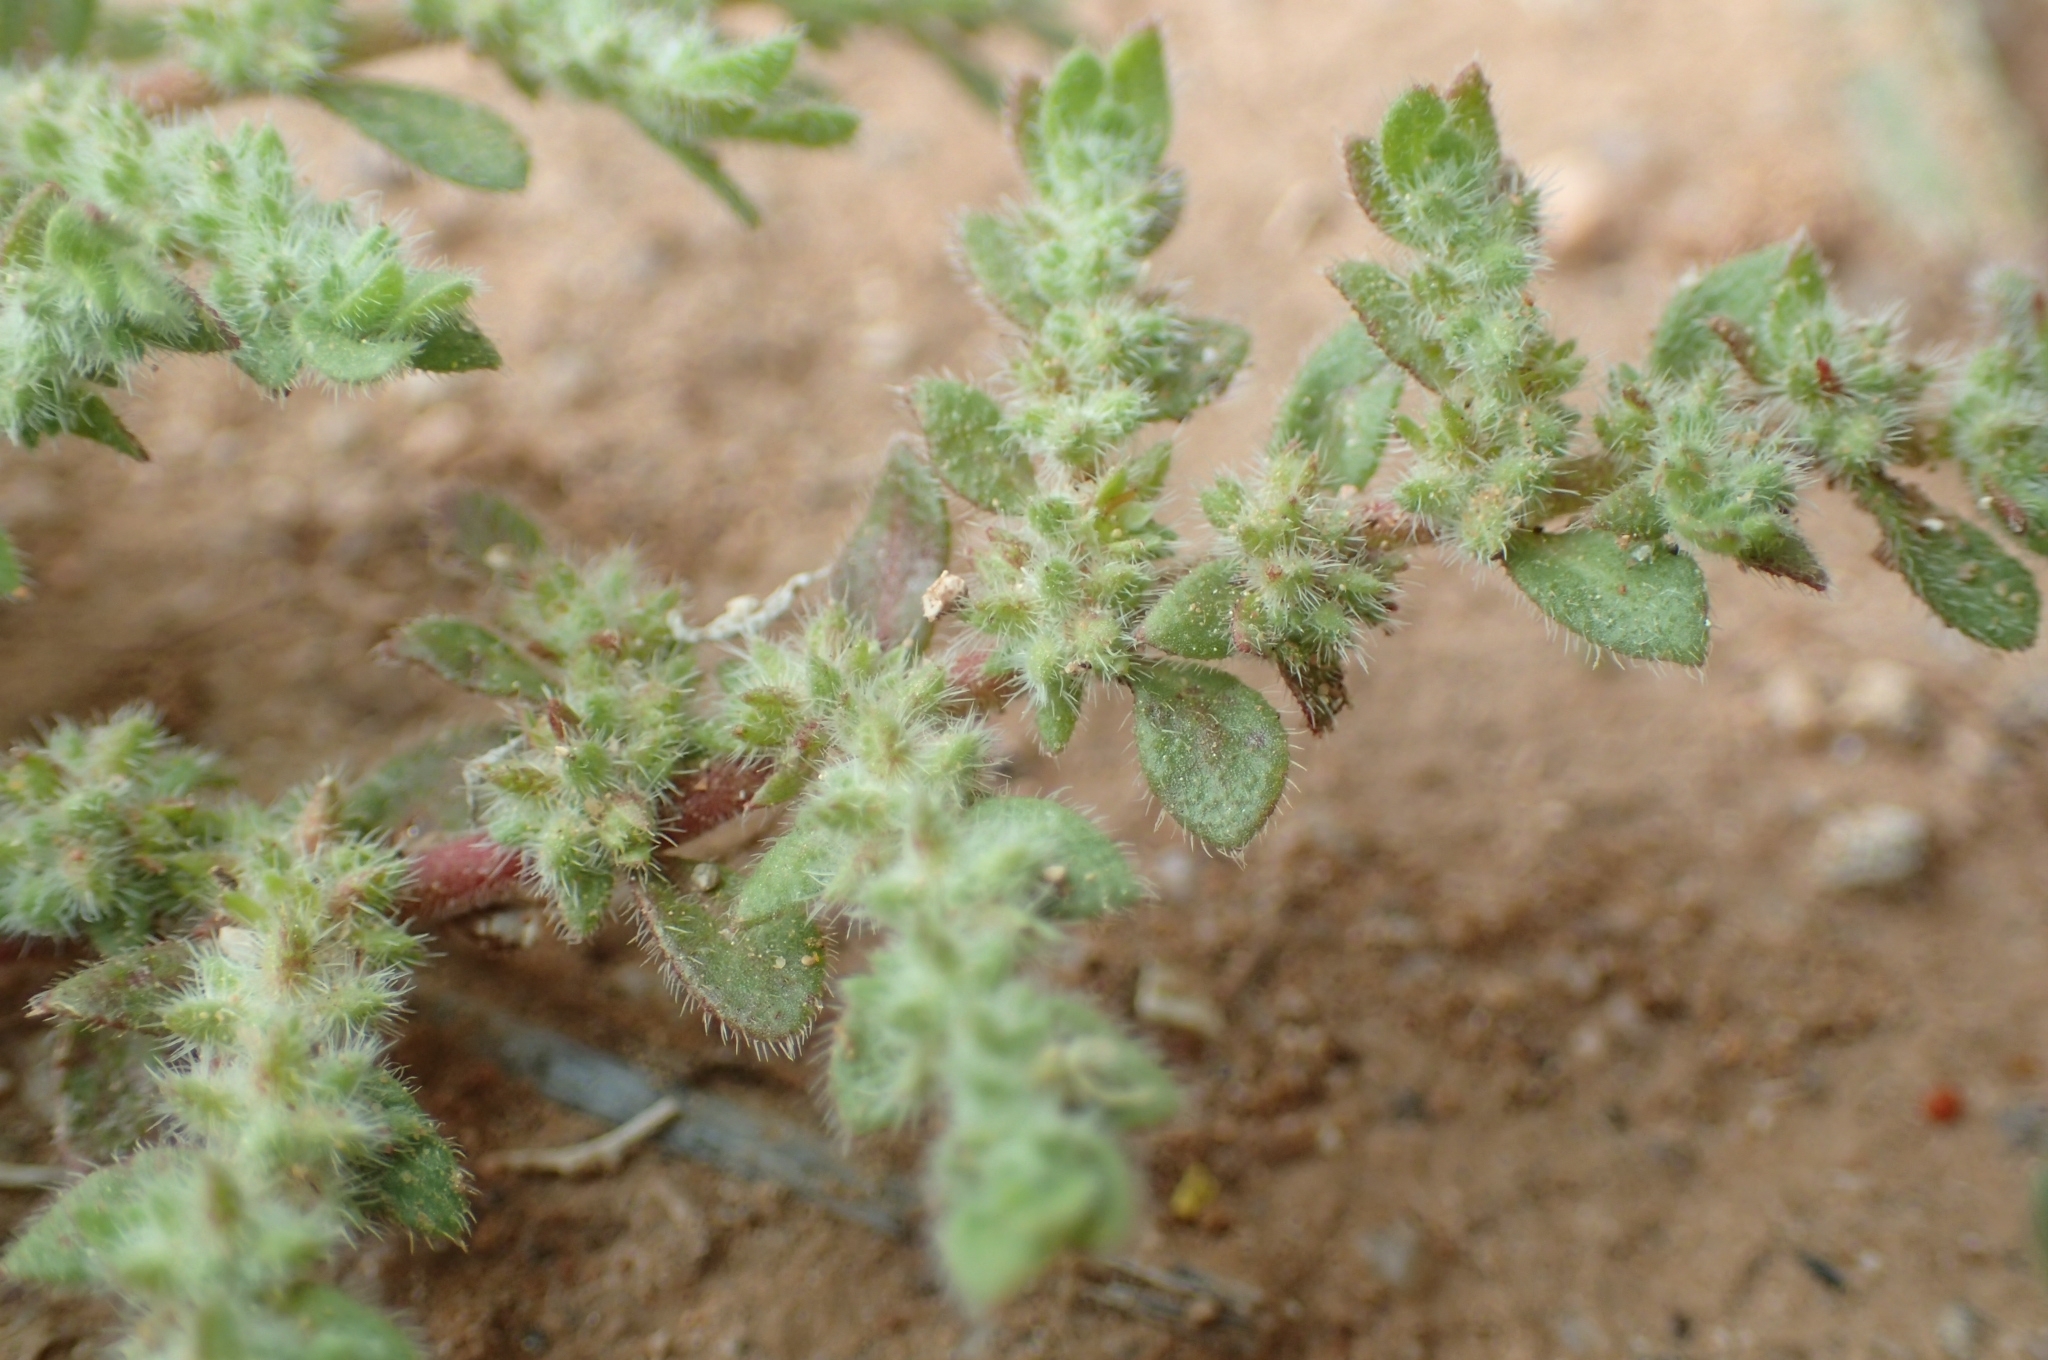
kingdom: Plantae
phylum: Tracheophyta
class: Magnoliopsida
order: Caryophyllales
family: Caryophyllaceae
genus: Herniaria
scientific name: Herniaria cinerea
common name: Hairy rupturewort
